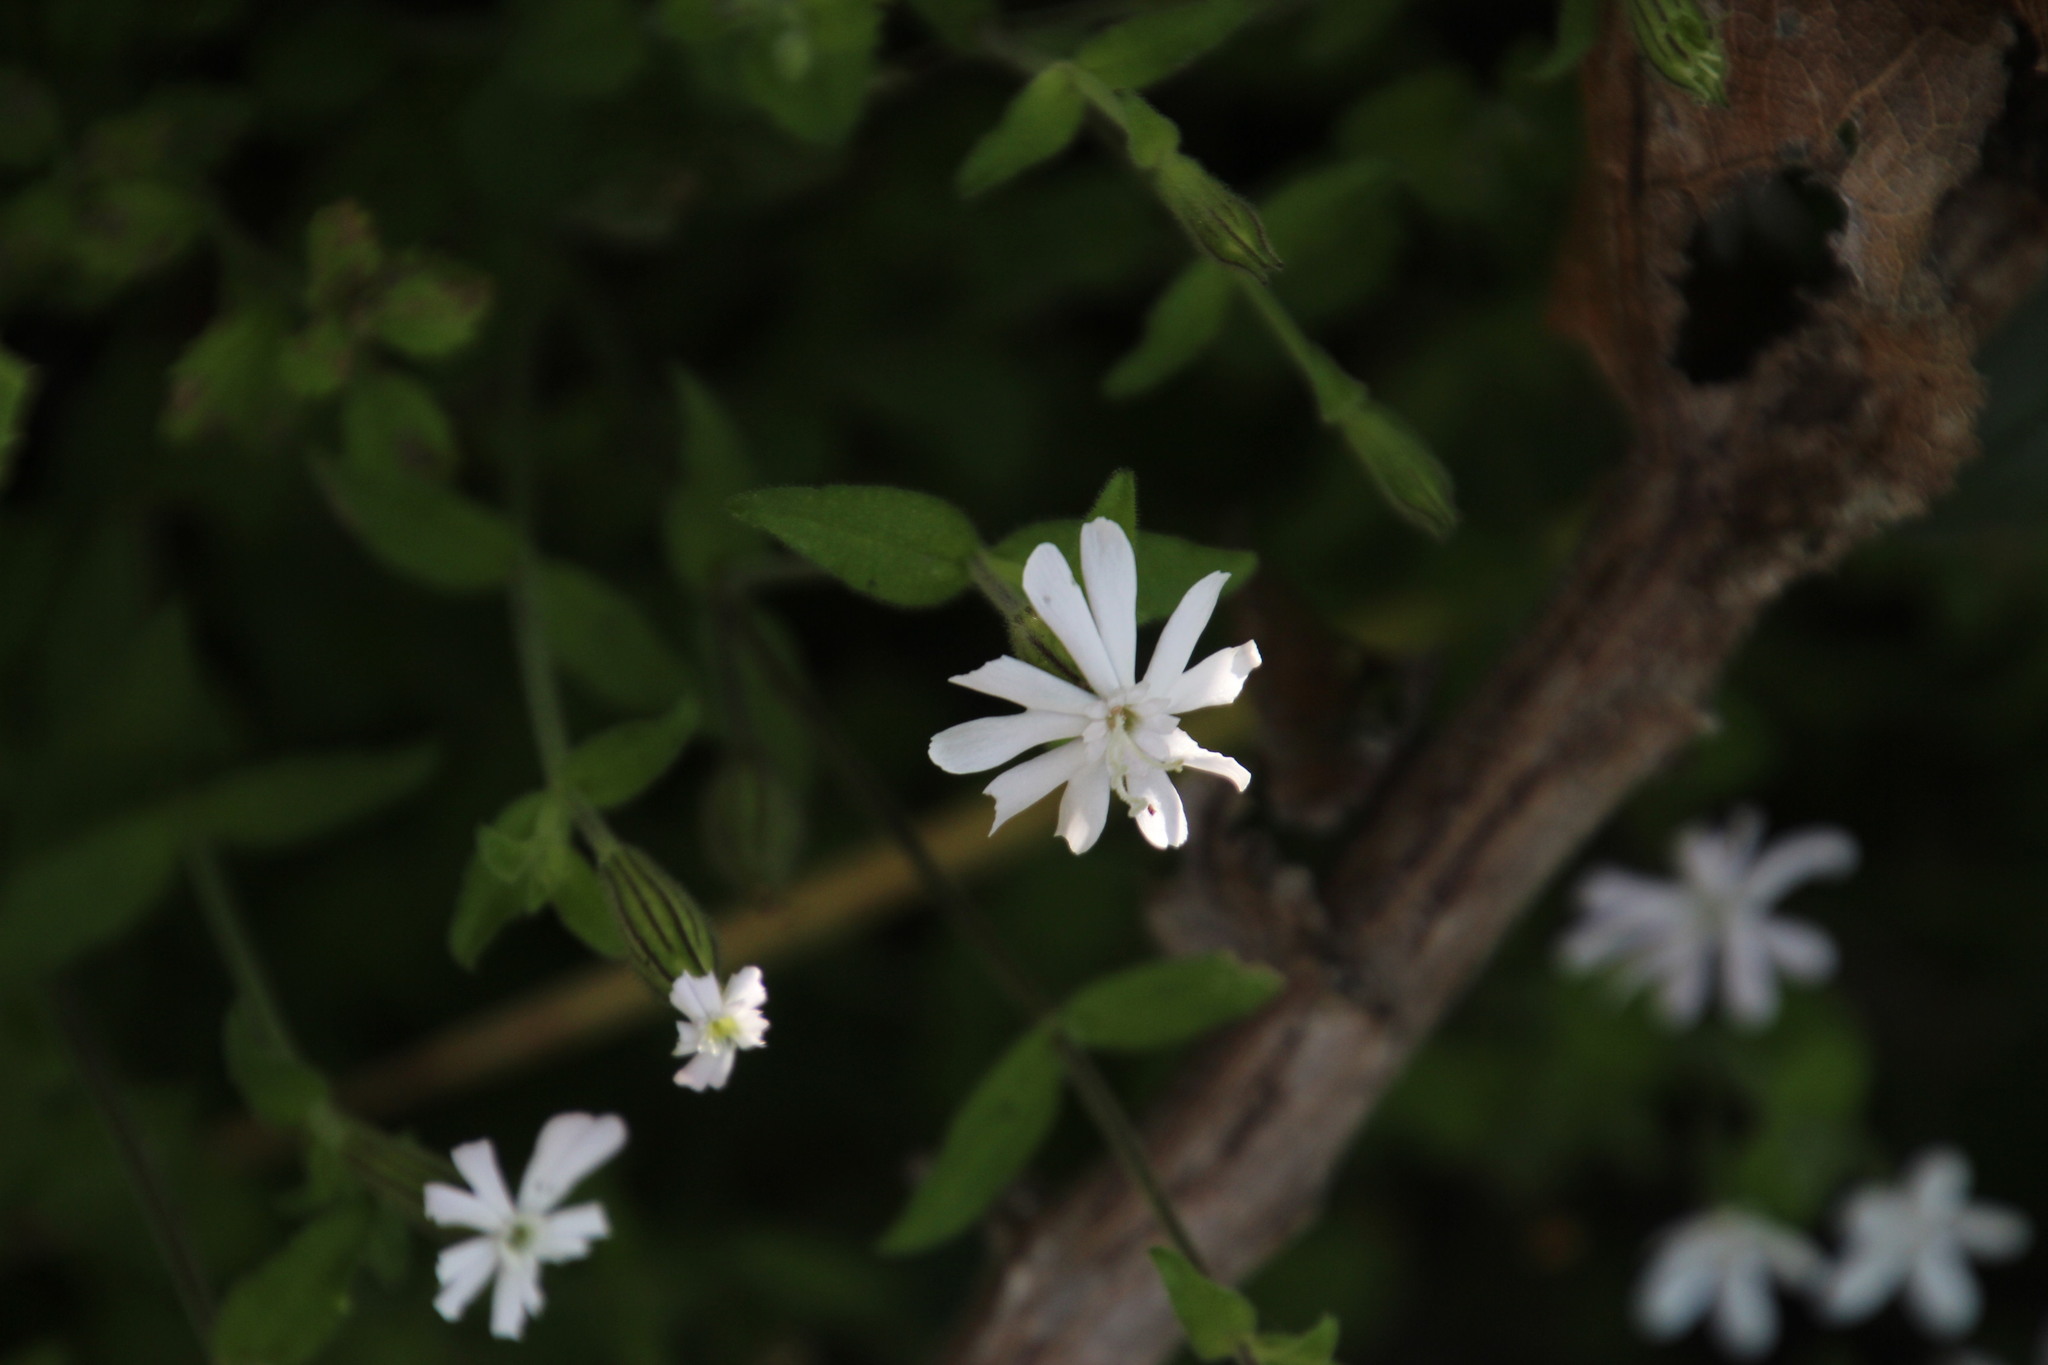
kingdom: Plantae
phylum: Tracheophyta
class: Magnoliopsida
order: Caryophyllales
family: Caryophyllaceae
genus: Silene
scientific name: Silene undulata
